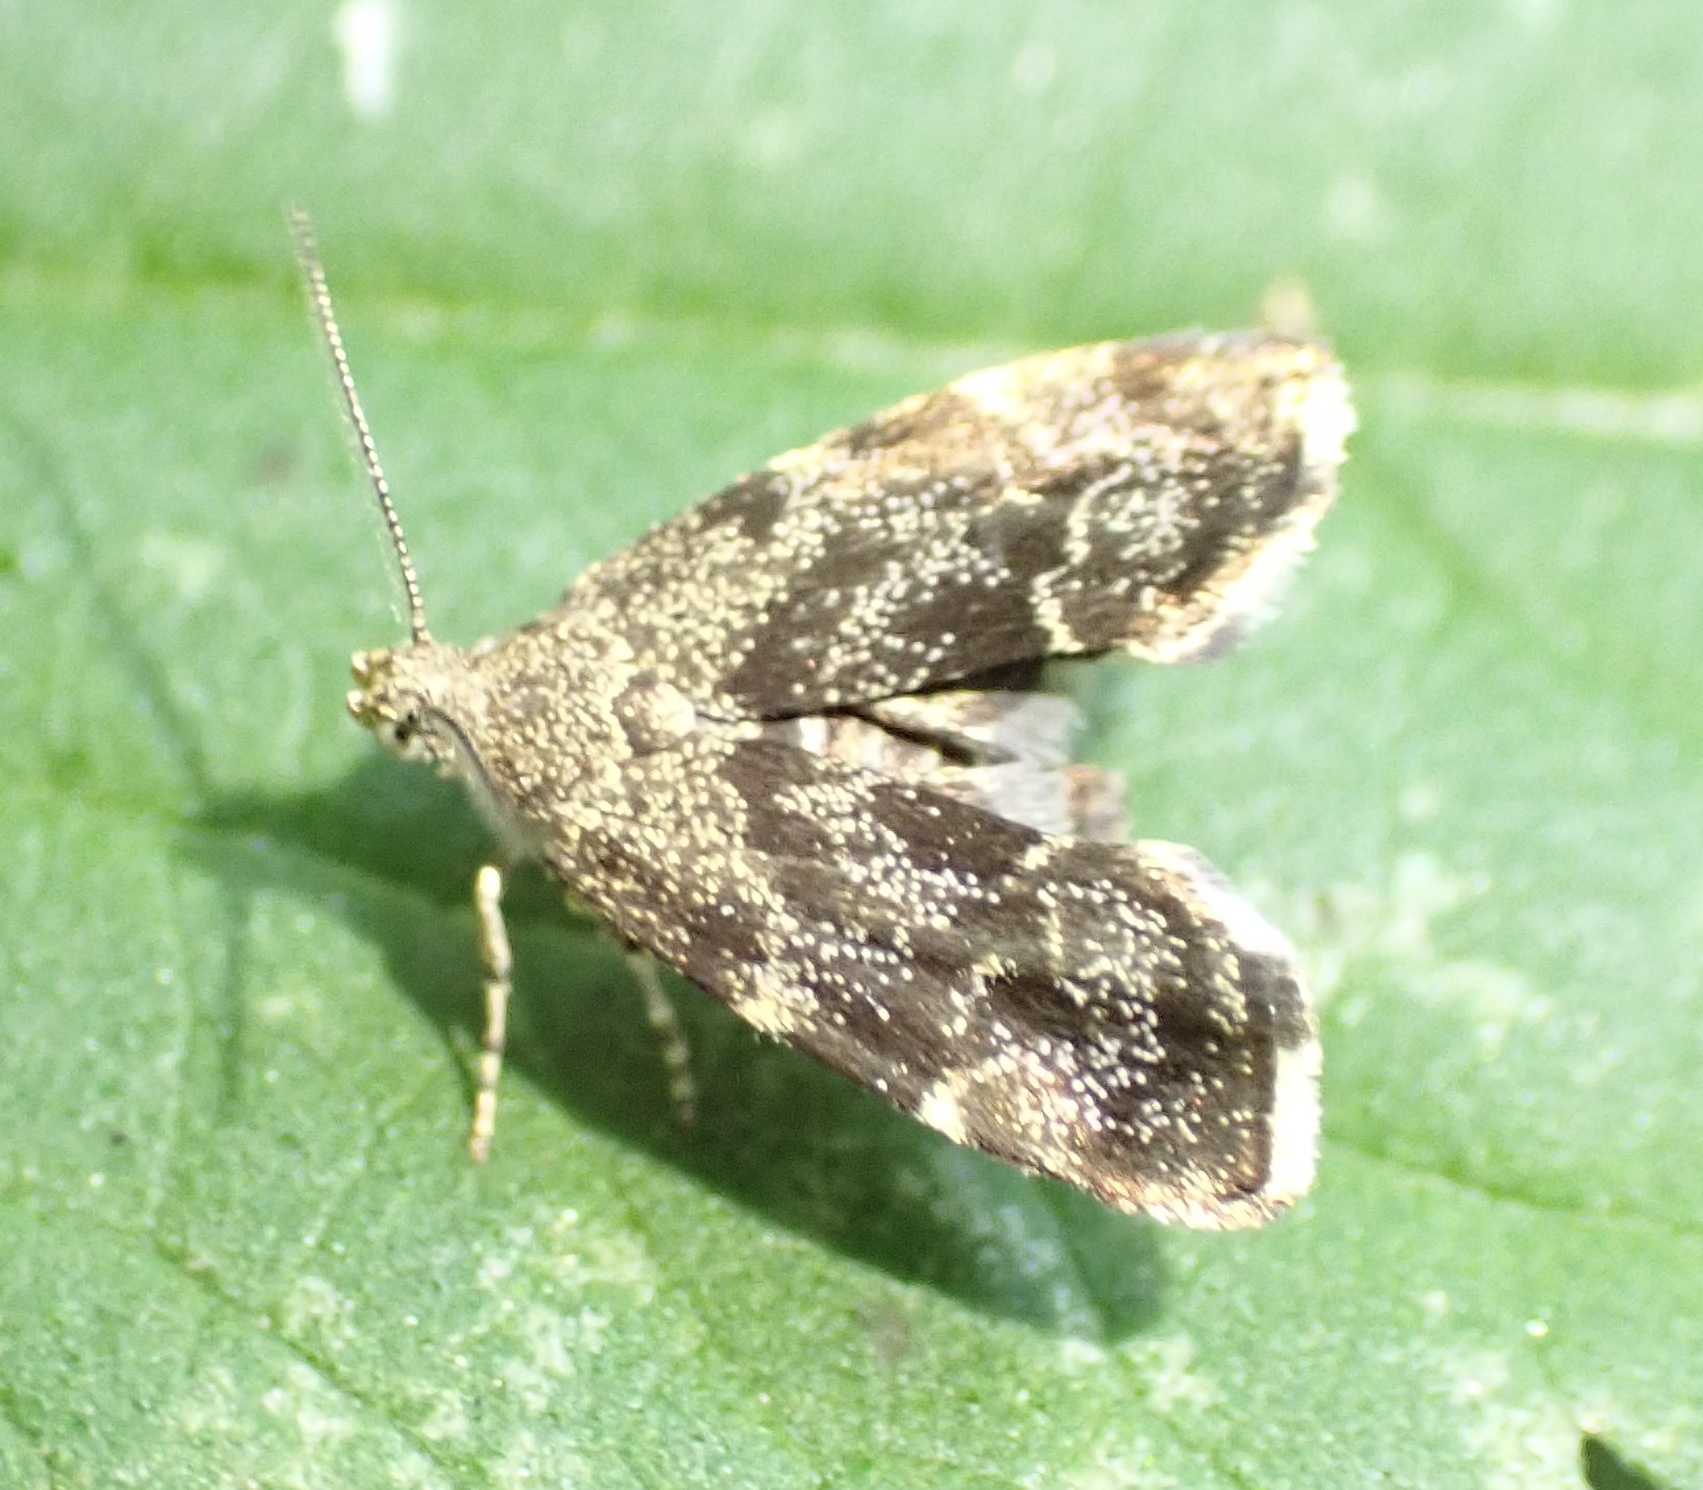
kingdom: Animalia
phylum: Arthropoda
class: Insecta
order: Lepidoptera
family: Choreutidae
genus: Anthophila
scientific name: Anthophila fabriciana
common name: Nettle-tap
